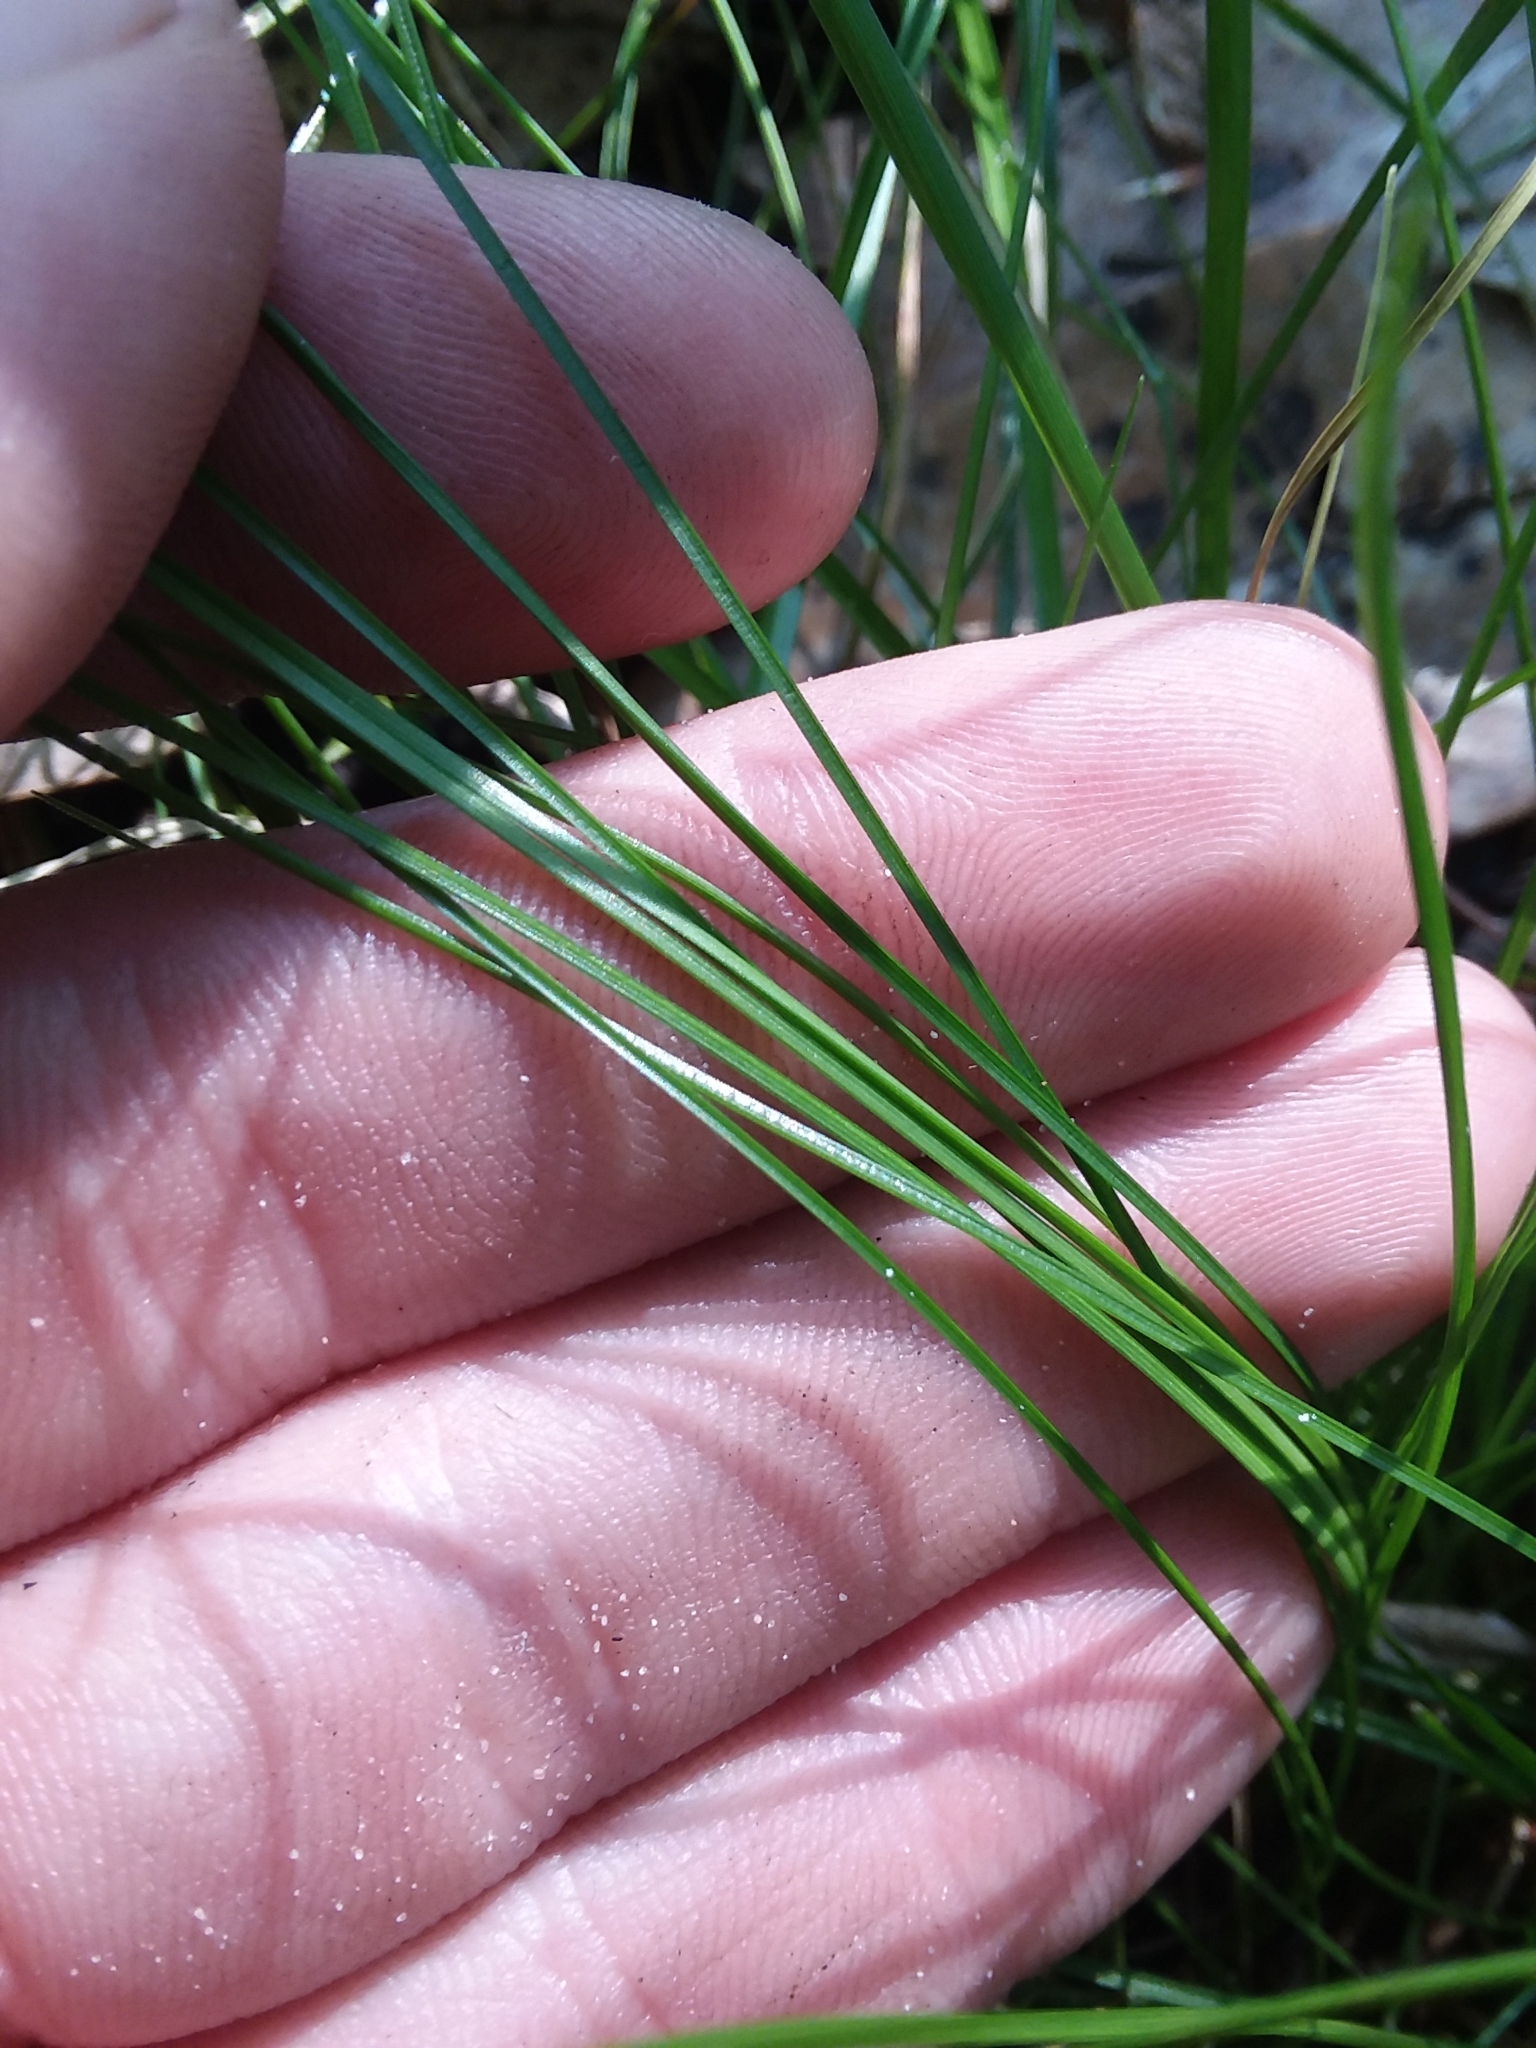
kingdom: Plantae
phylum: Tracheophyta
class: Liliopsida
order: Poales
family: Cyperaceae
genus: Carex
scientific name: Carex leptalea
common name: Bristly-stalked sedge
